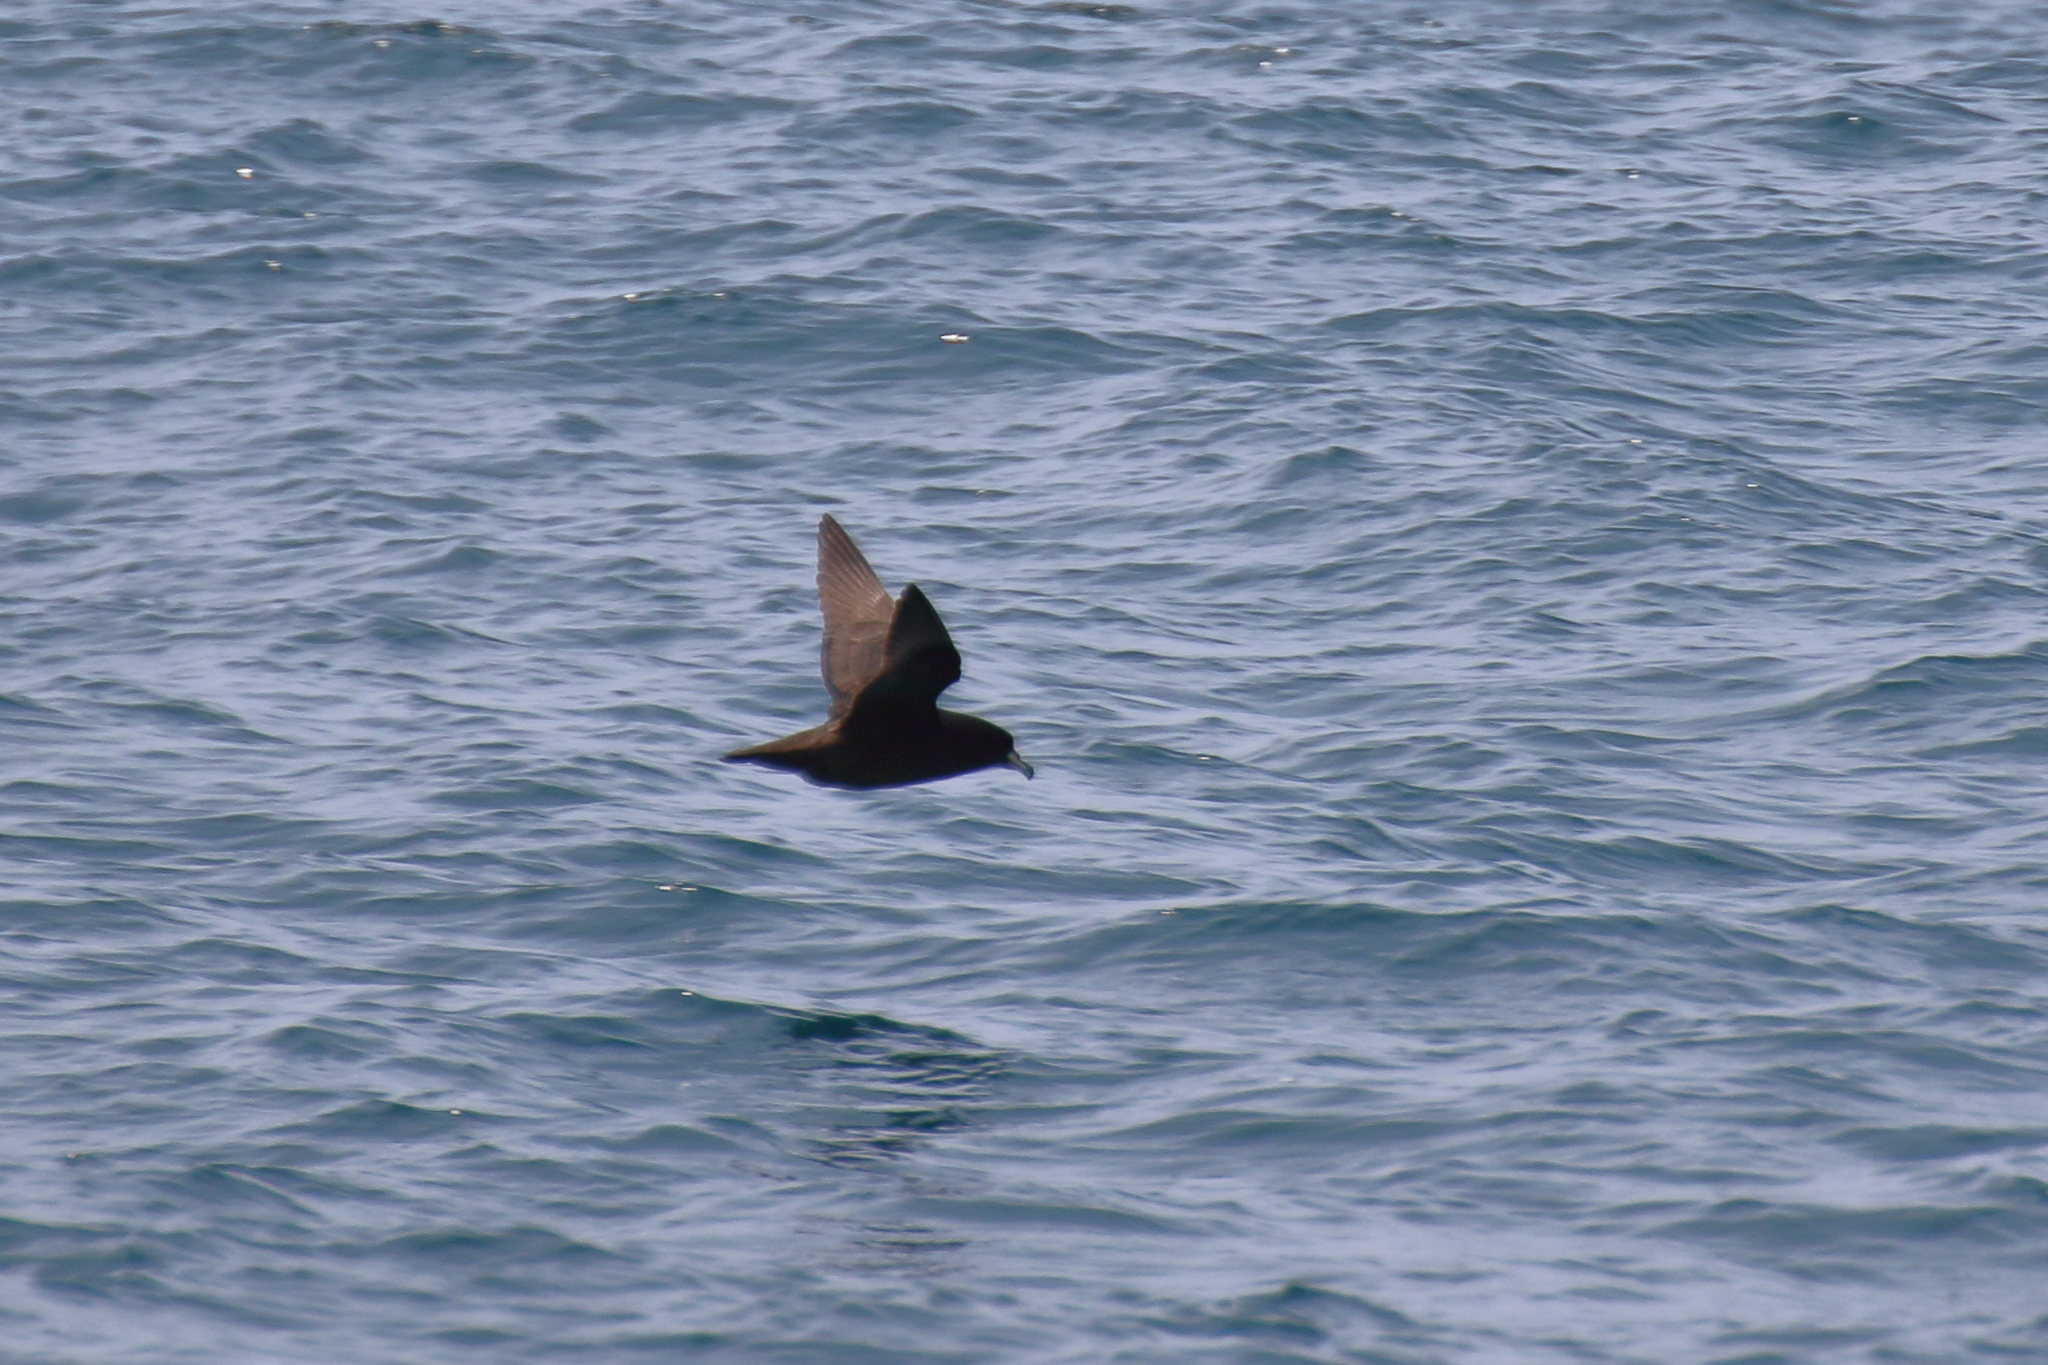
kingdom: Animalia
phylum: Chordata
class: Aves
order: Procellariiformes
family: Procellariidae
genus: Procellaria
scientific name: Procellaria westlandica
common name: Westland petrel
